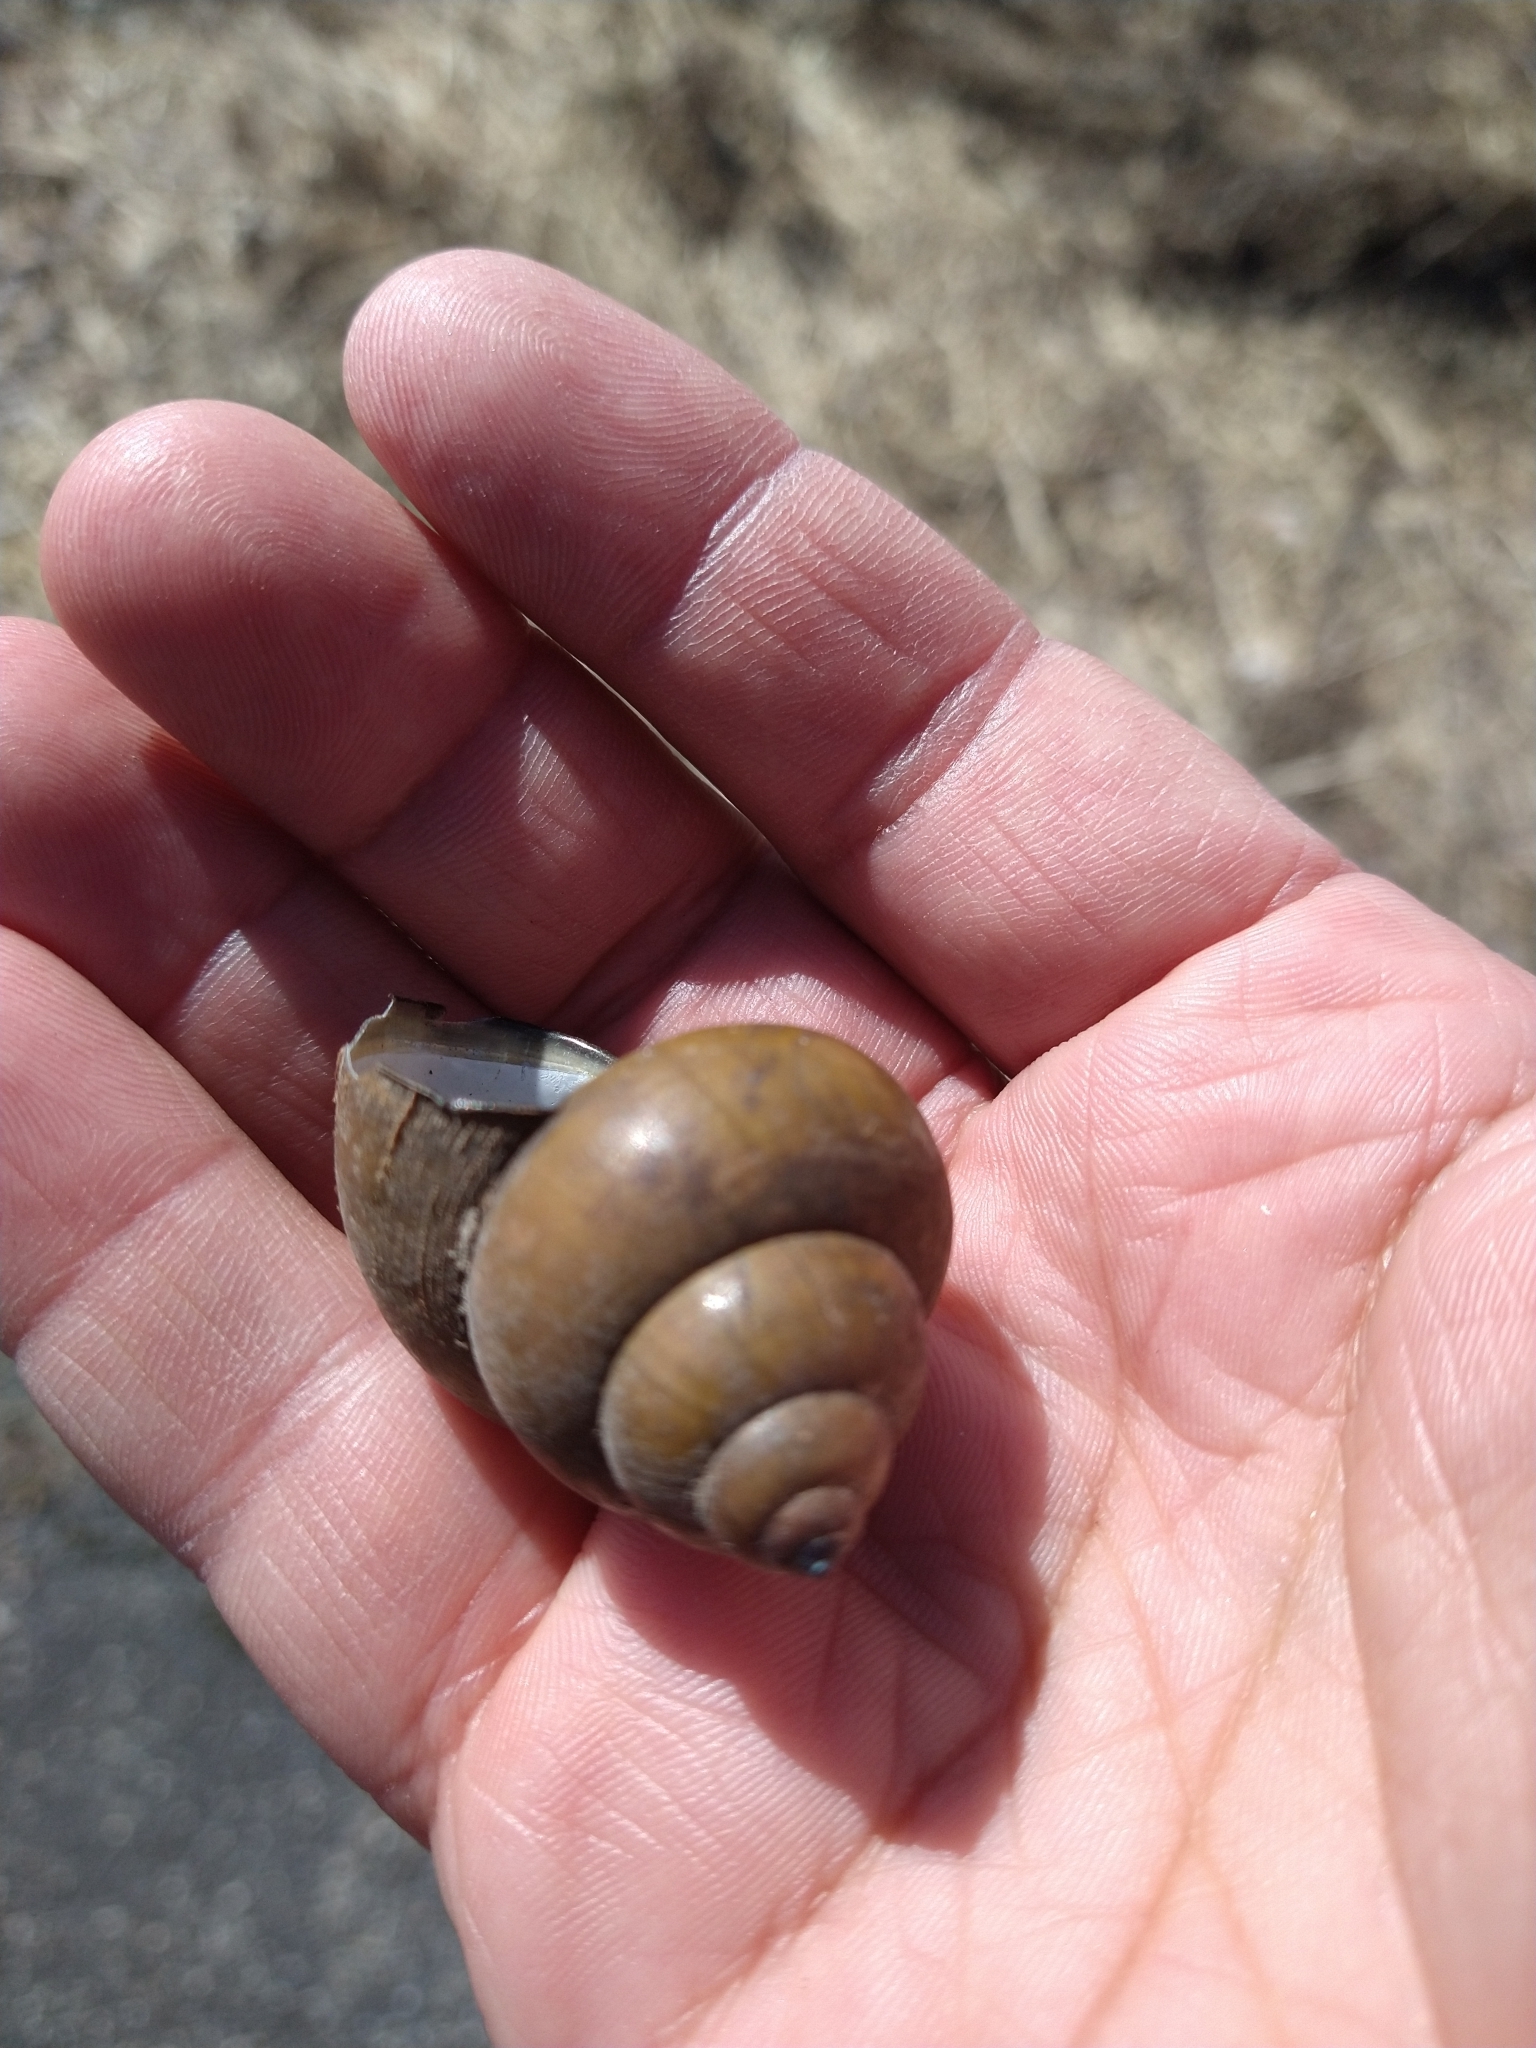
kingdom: Animalia
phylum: Mollusca
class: Gastropoda
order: Architaenioglossa
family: Viviparidae
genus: Cipangopaludina
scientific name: Cipangopaludina chinensis
